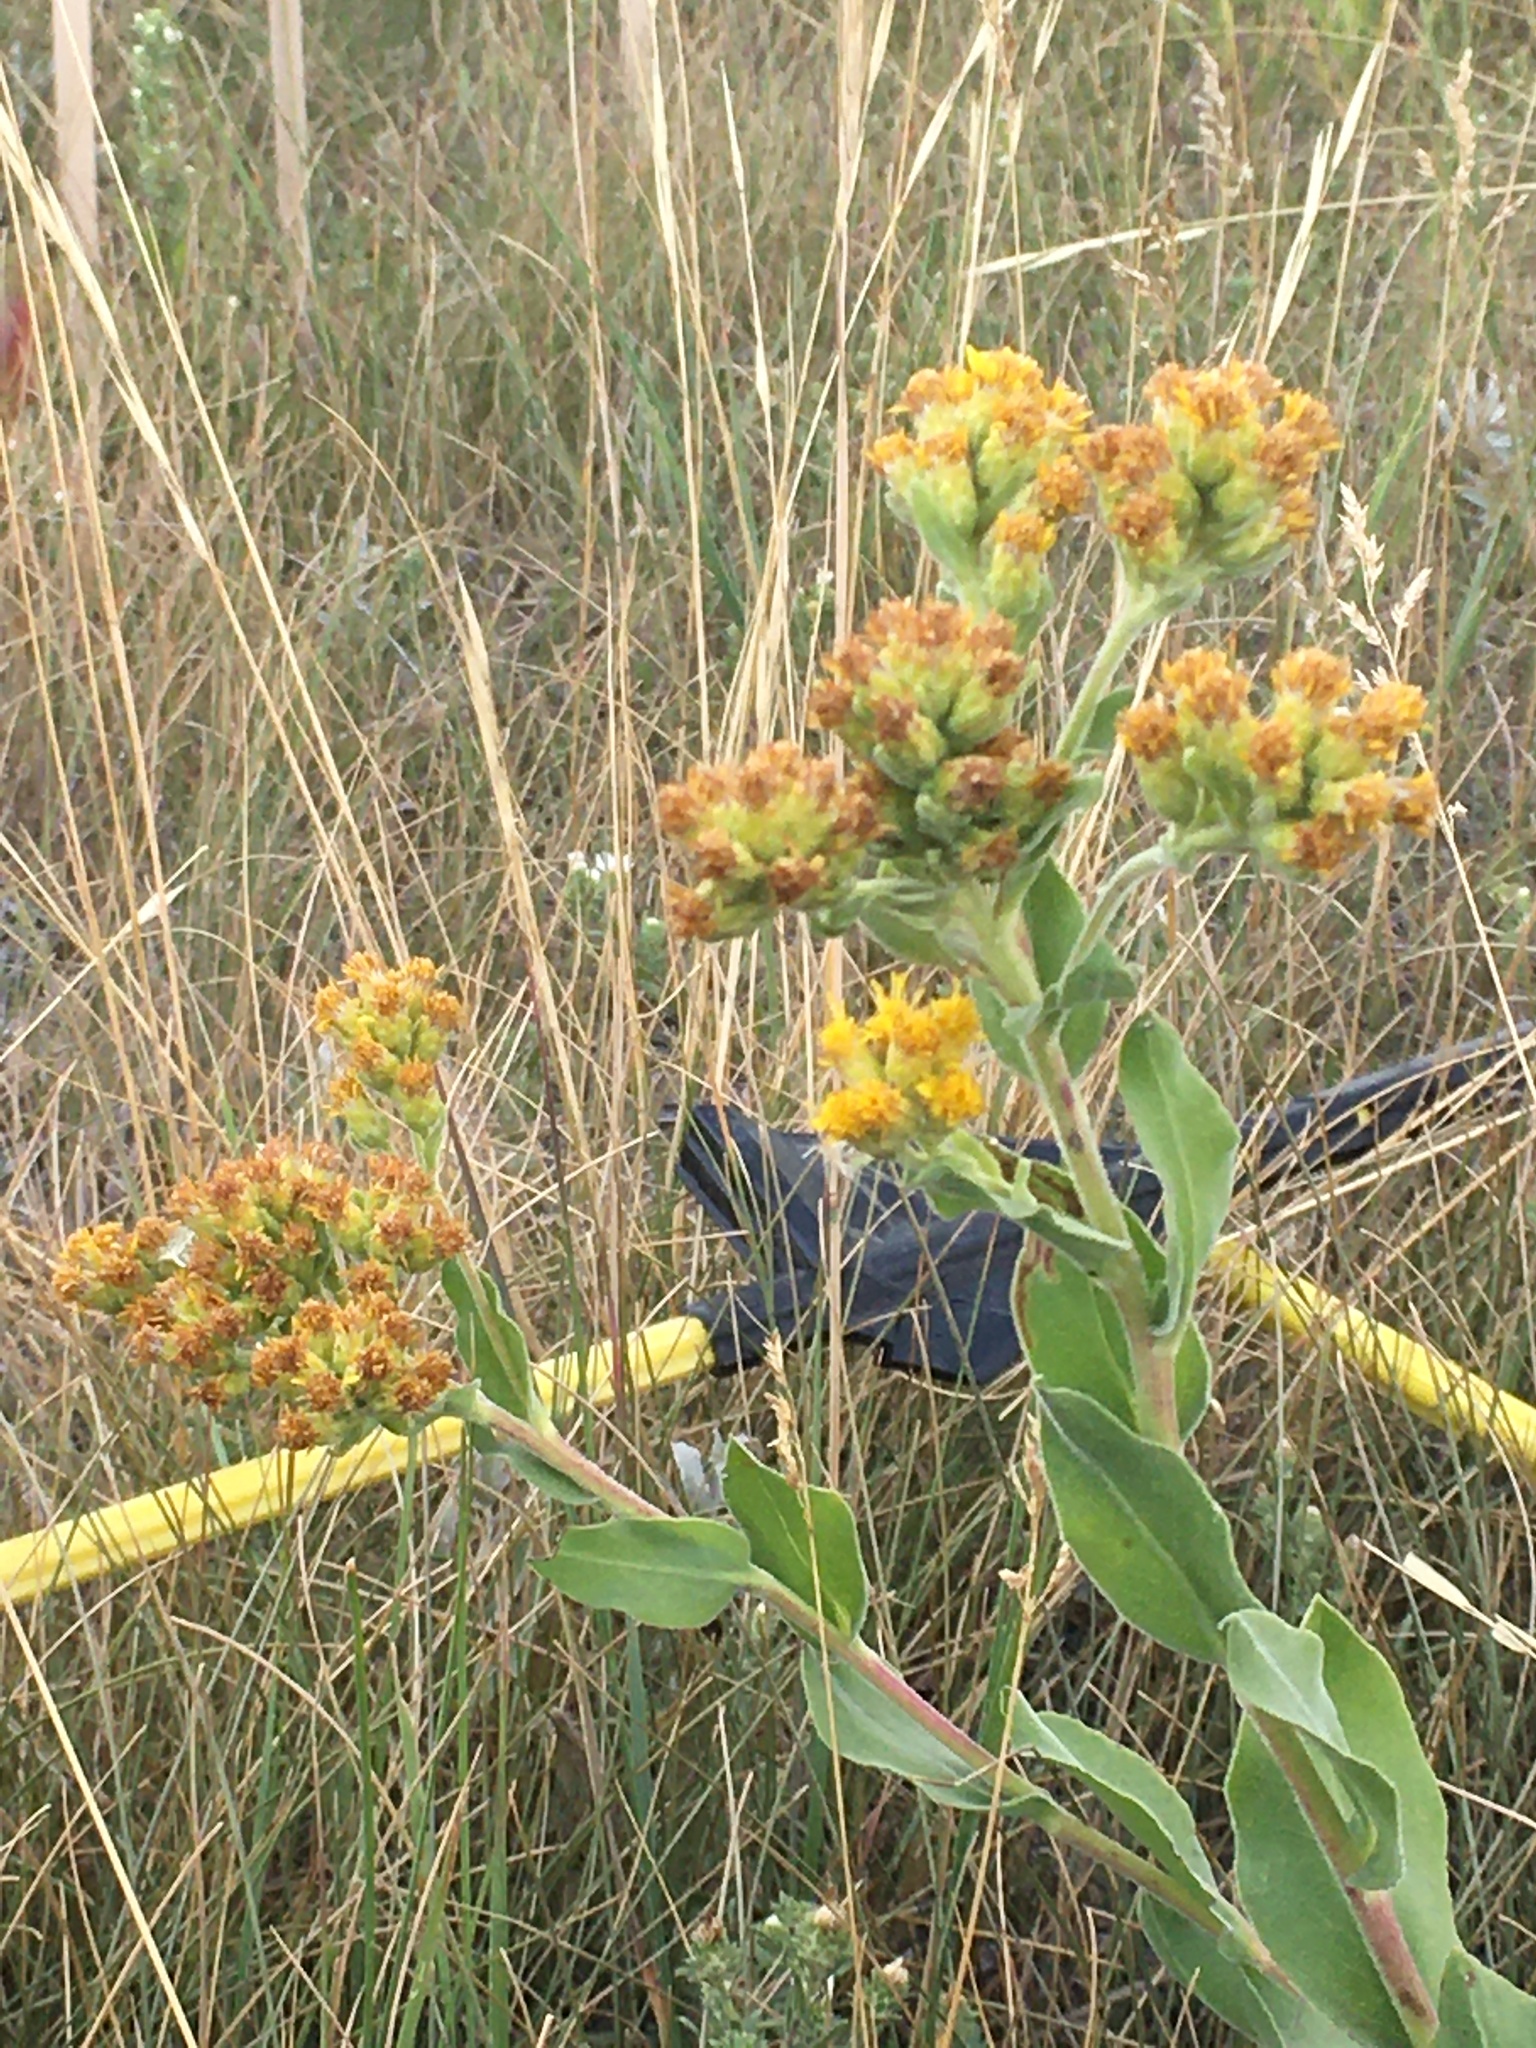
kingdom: Plantae
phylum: Tracheophyta
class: Magnoliopsida
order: Asterales
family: Asteraceae
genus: Solidago
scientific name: Solidago rigida
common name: Rigid goldenrod
